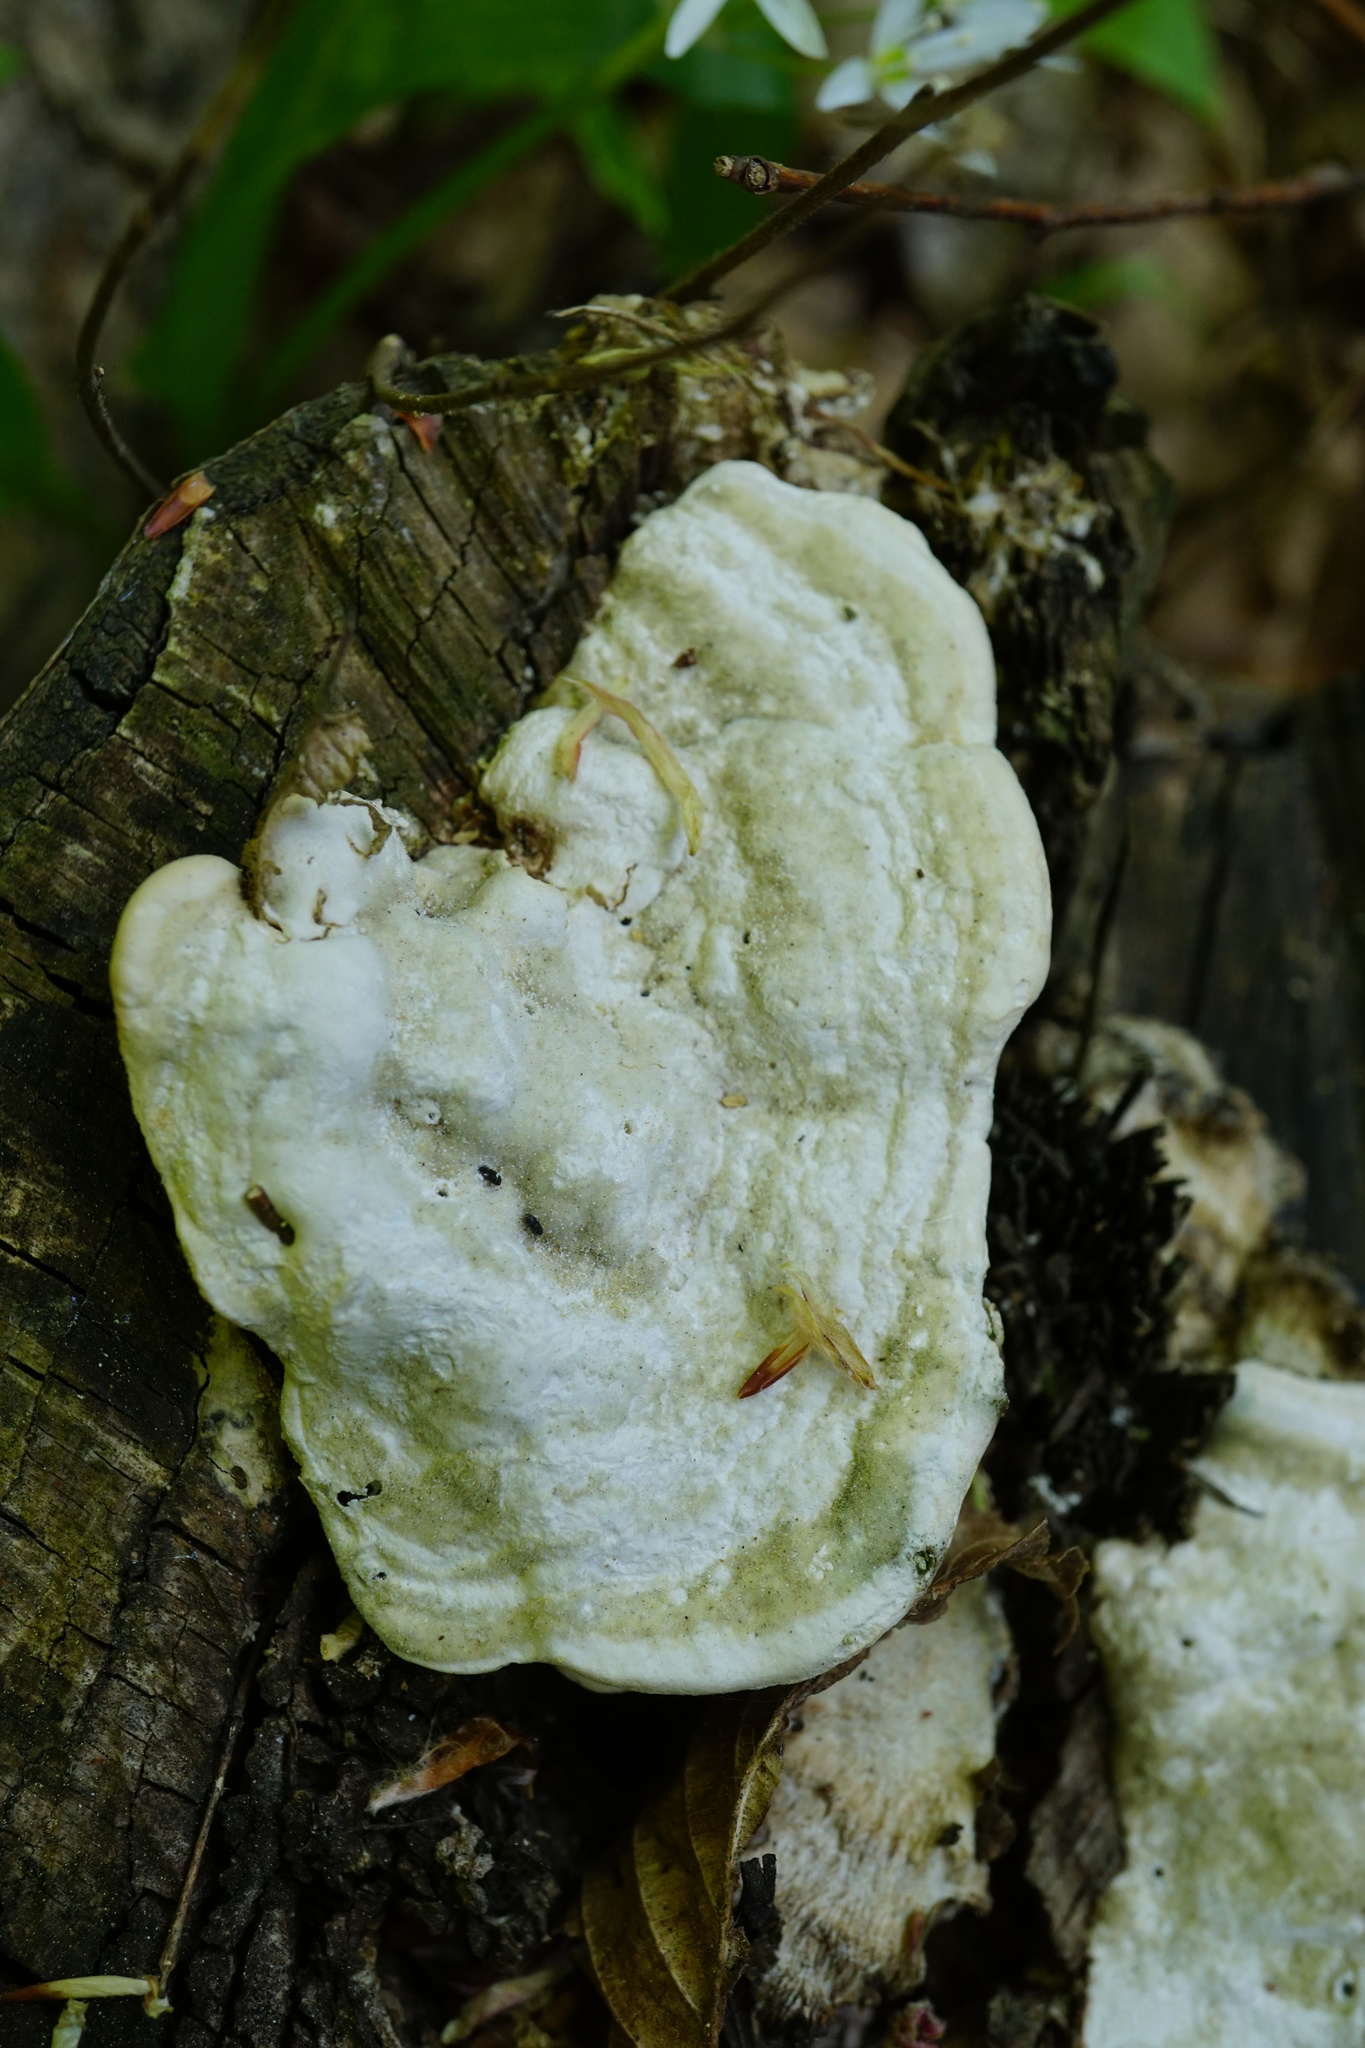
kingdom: Fungi
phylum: Basidiomycota
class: Agaricomycetes
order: Polyporales
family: Polyporaceae
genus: Trametes
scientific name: Trametes gibbosa
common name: Lumpy bracket
